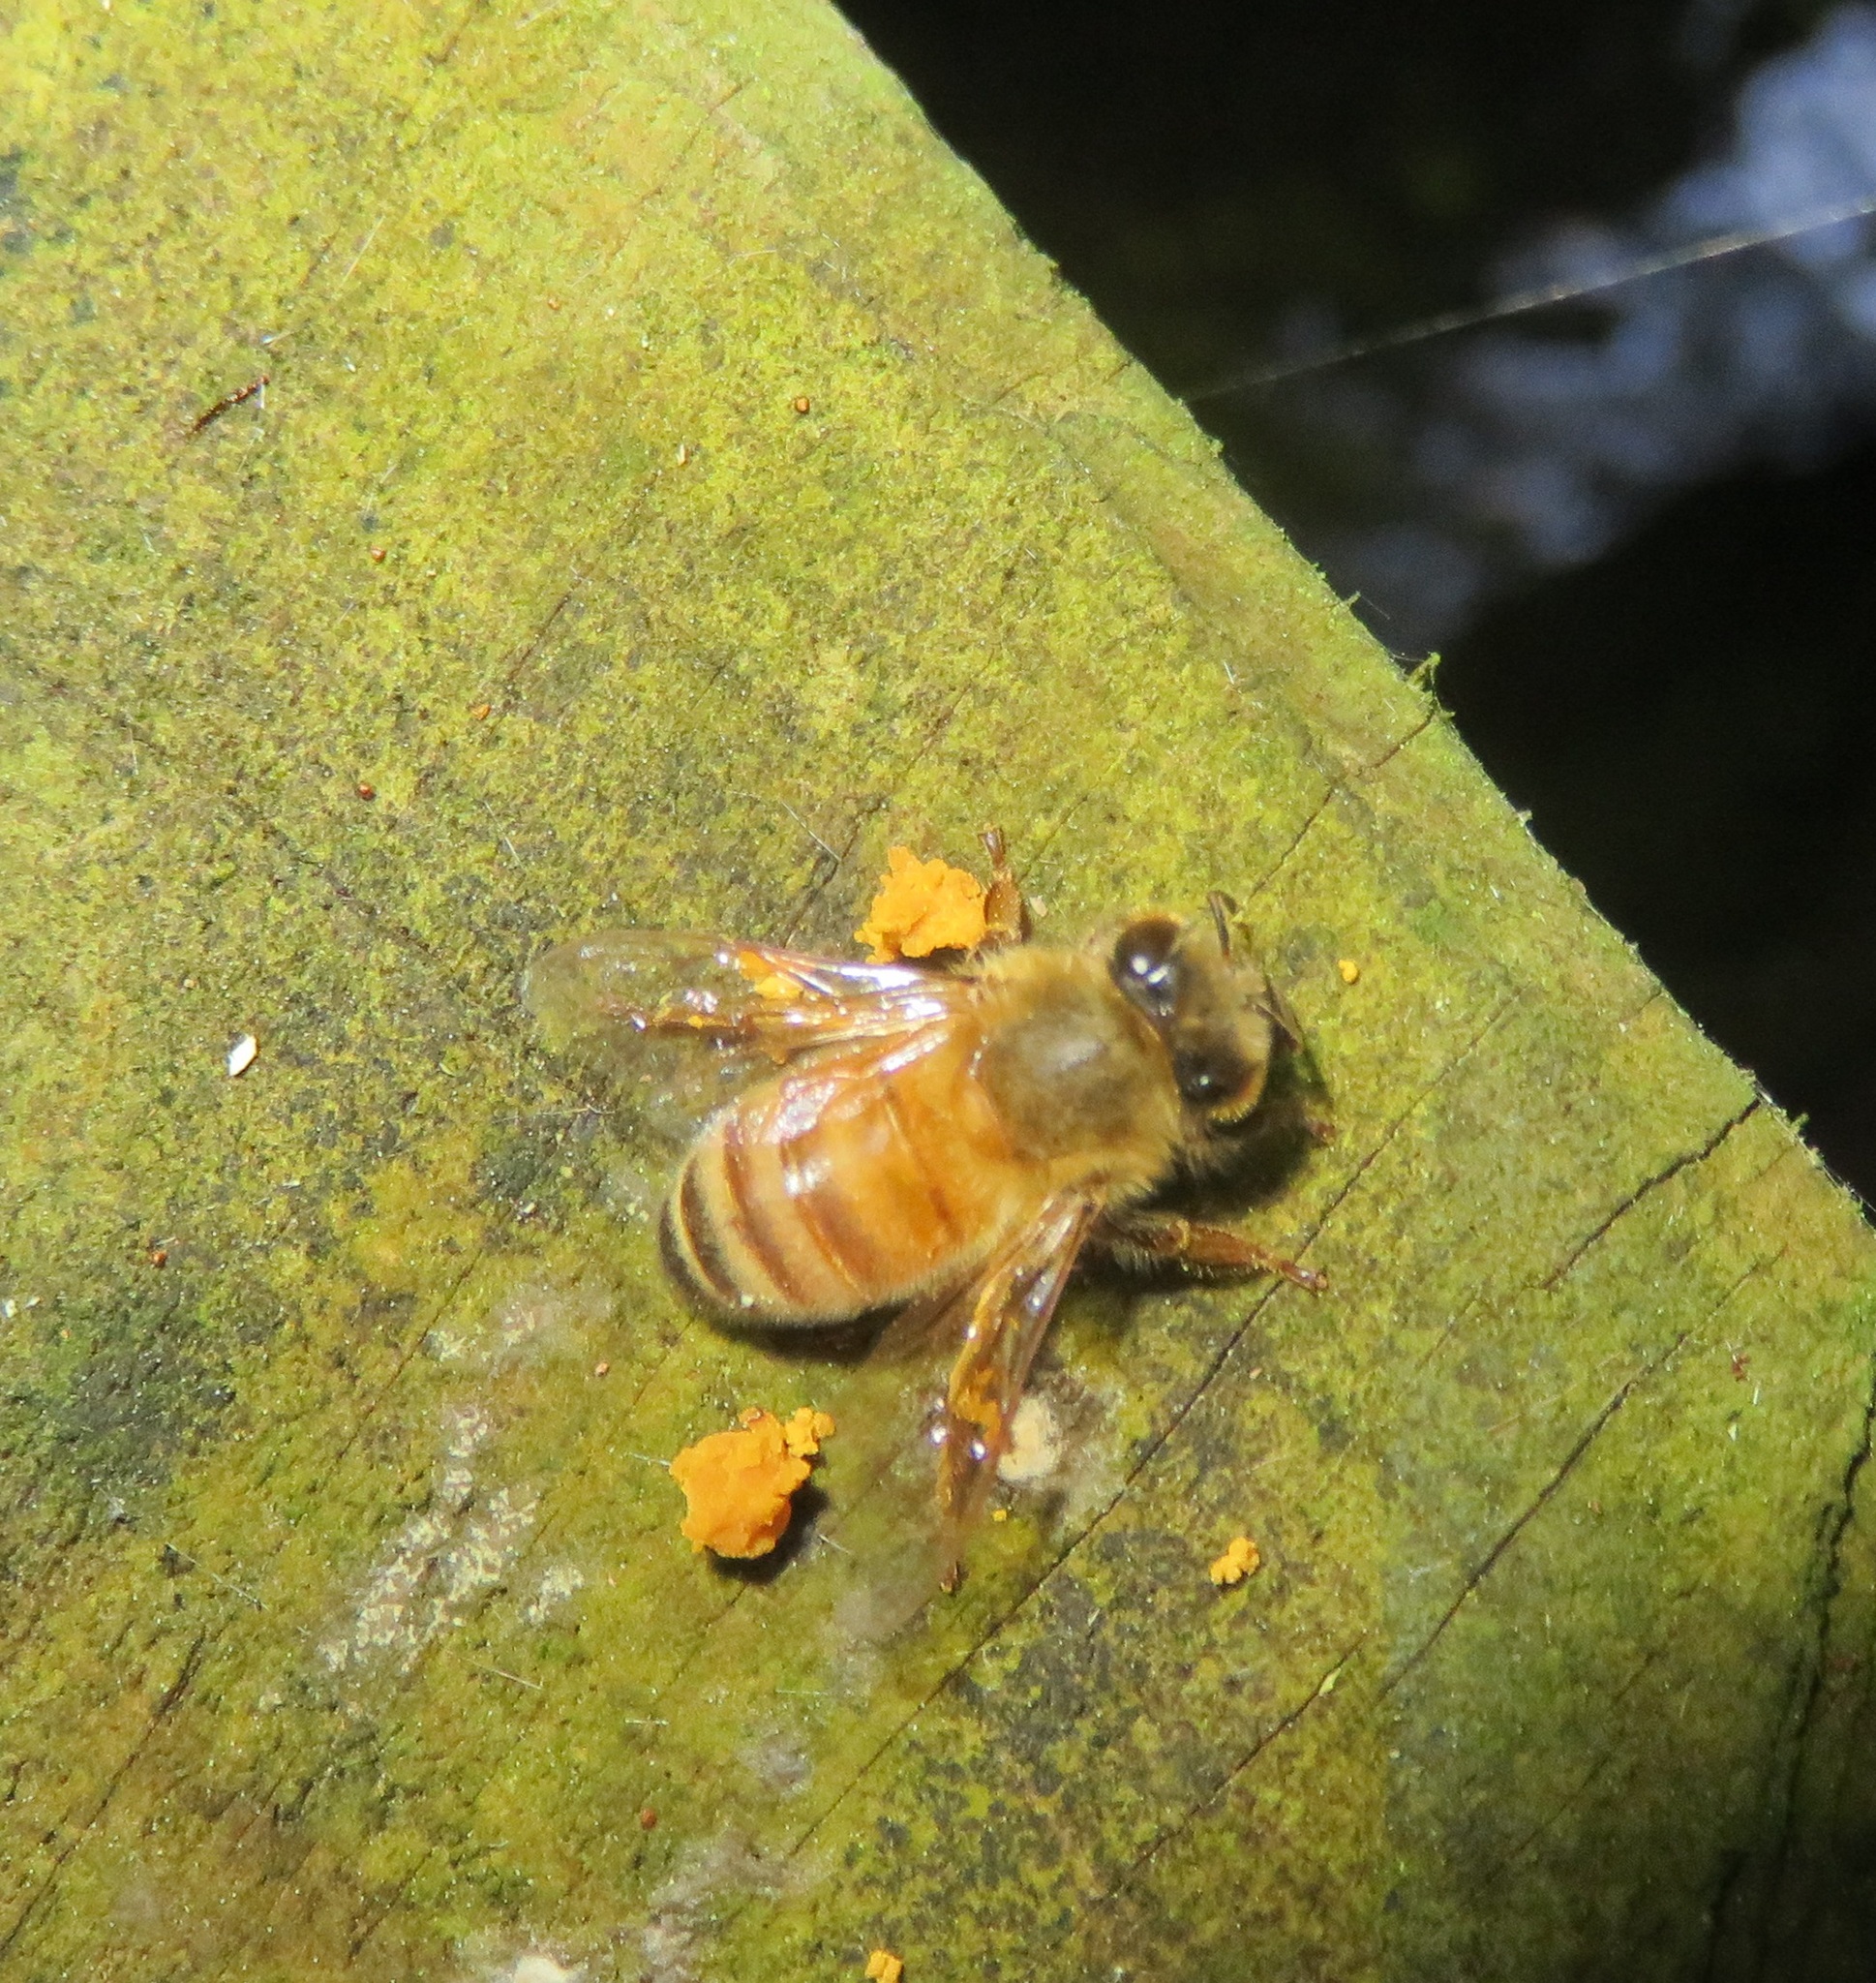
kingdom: Animalia
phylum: Arthropoda
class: Insecta
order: Hymenoptera
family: Apidae
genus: Apis
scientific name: Apis mellifera
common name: Honey bee
